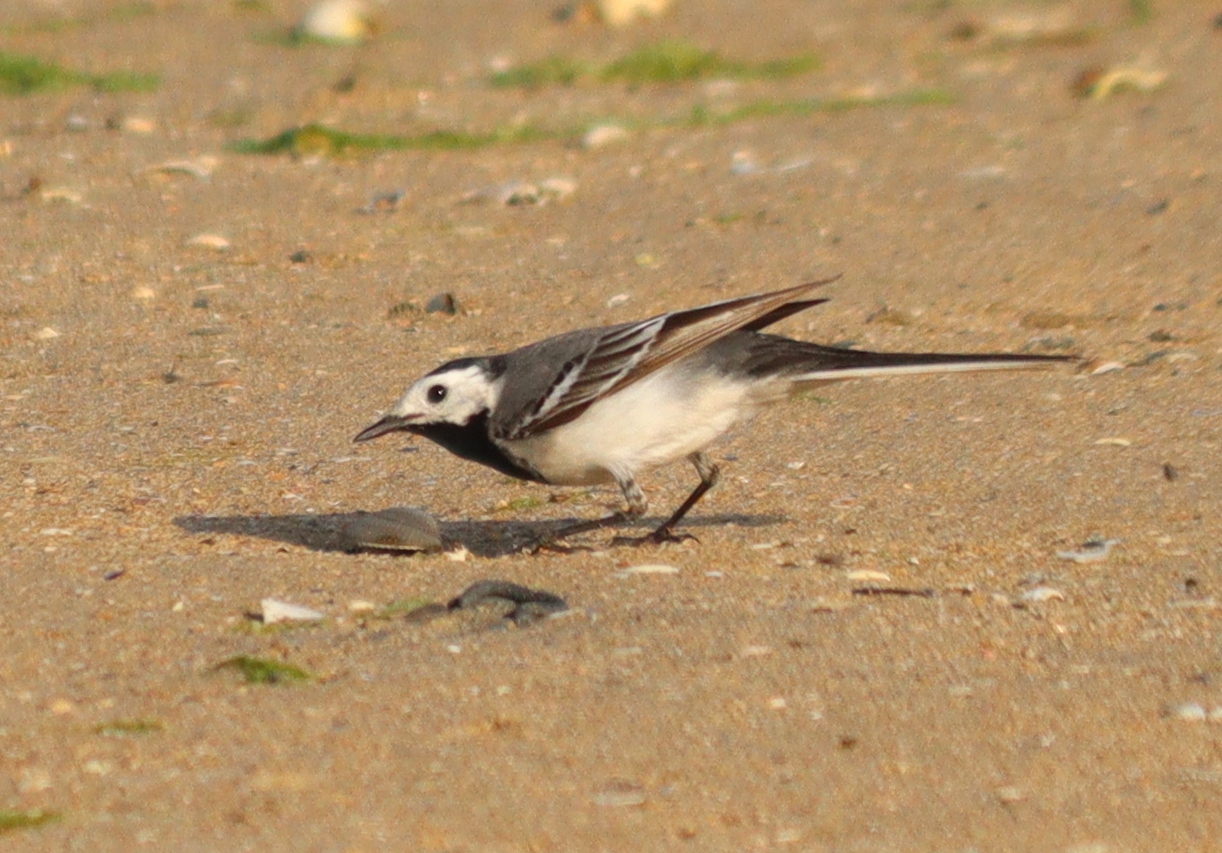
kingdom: Animalia
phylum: Chordata
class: Aves
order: Passeriformes
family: Motacillidae
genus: Motacilla
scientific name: Motacilla alba
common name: White wagtail
